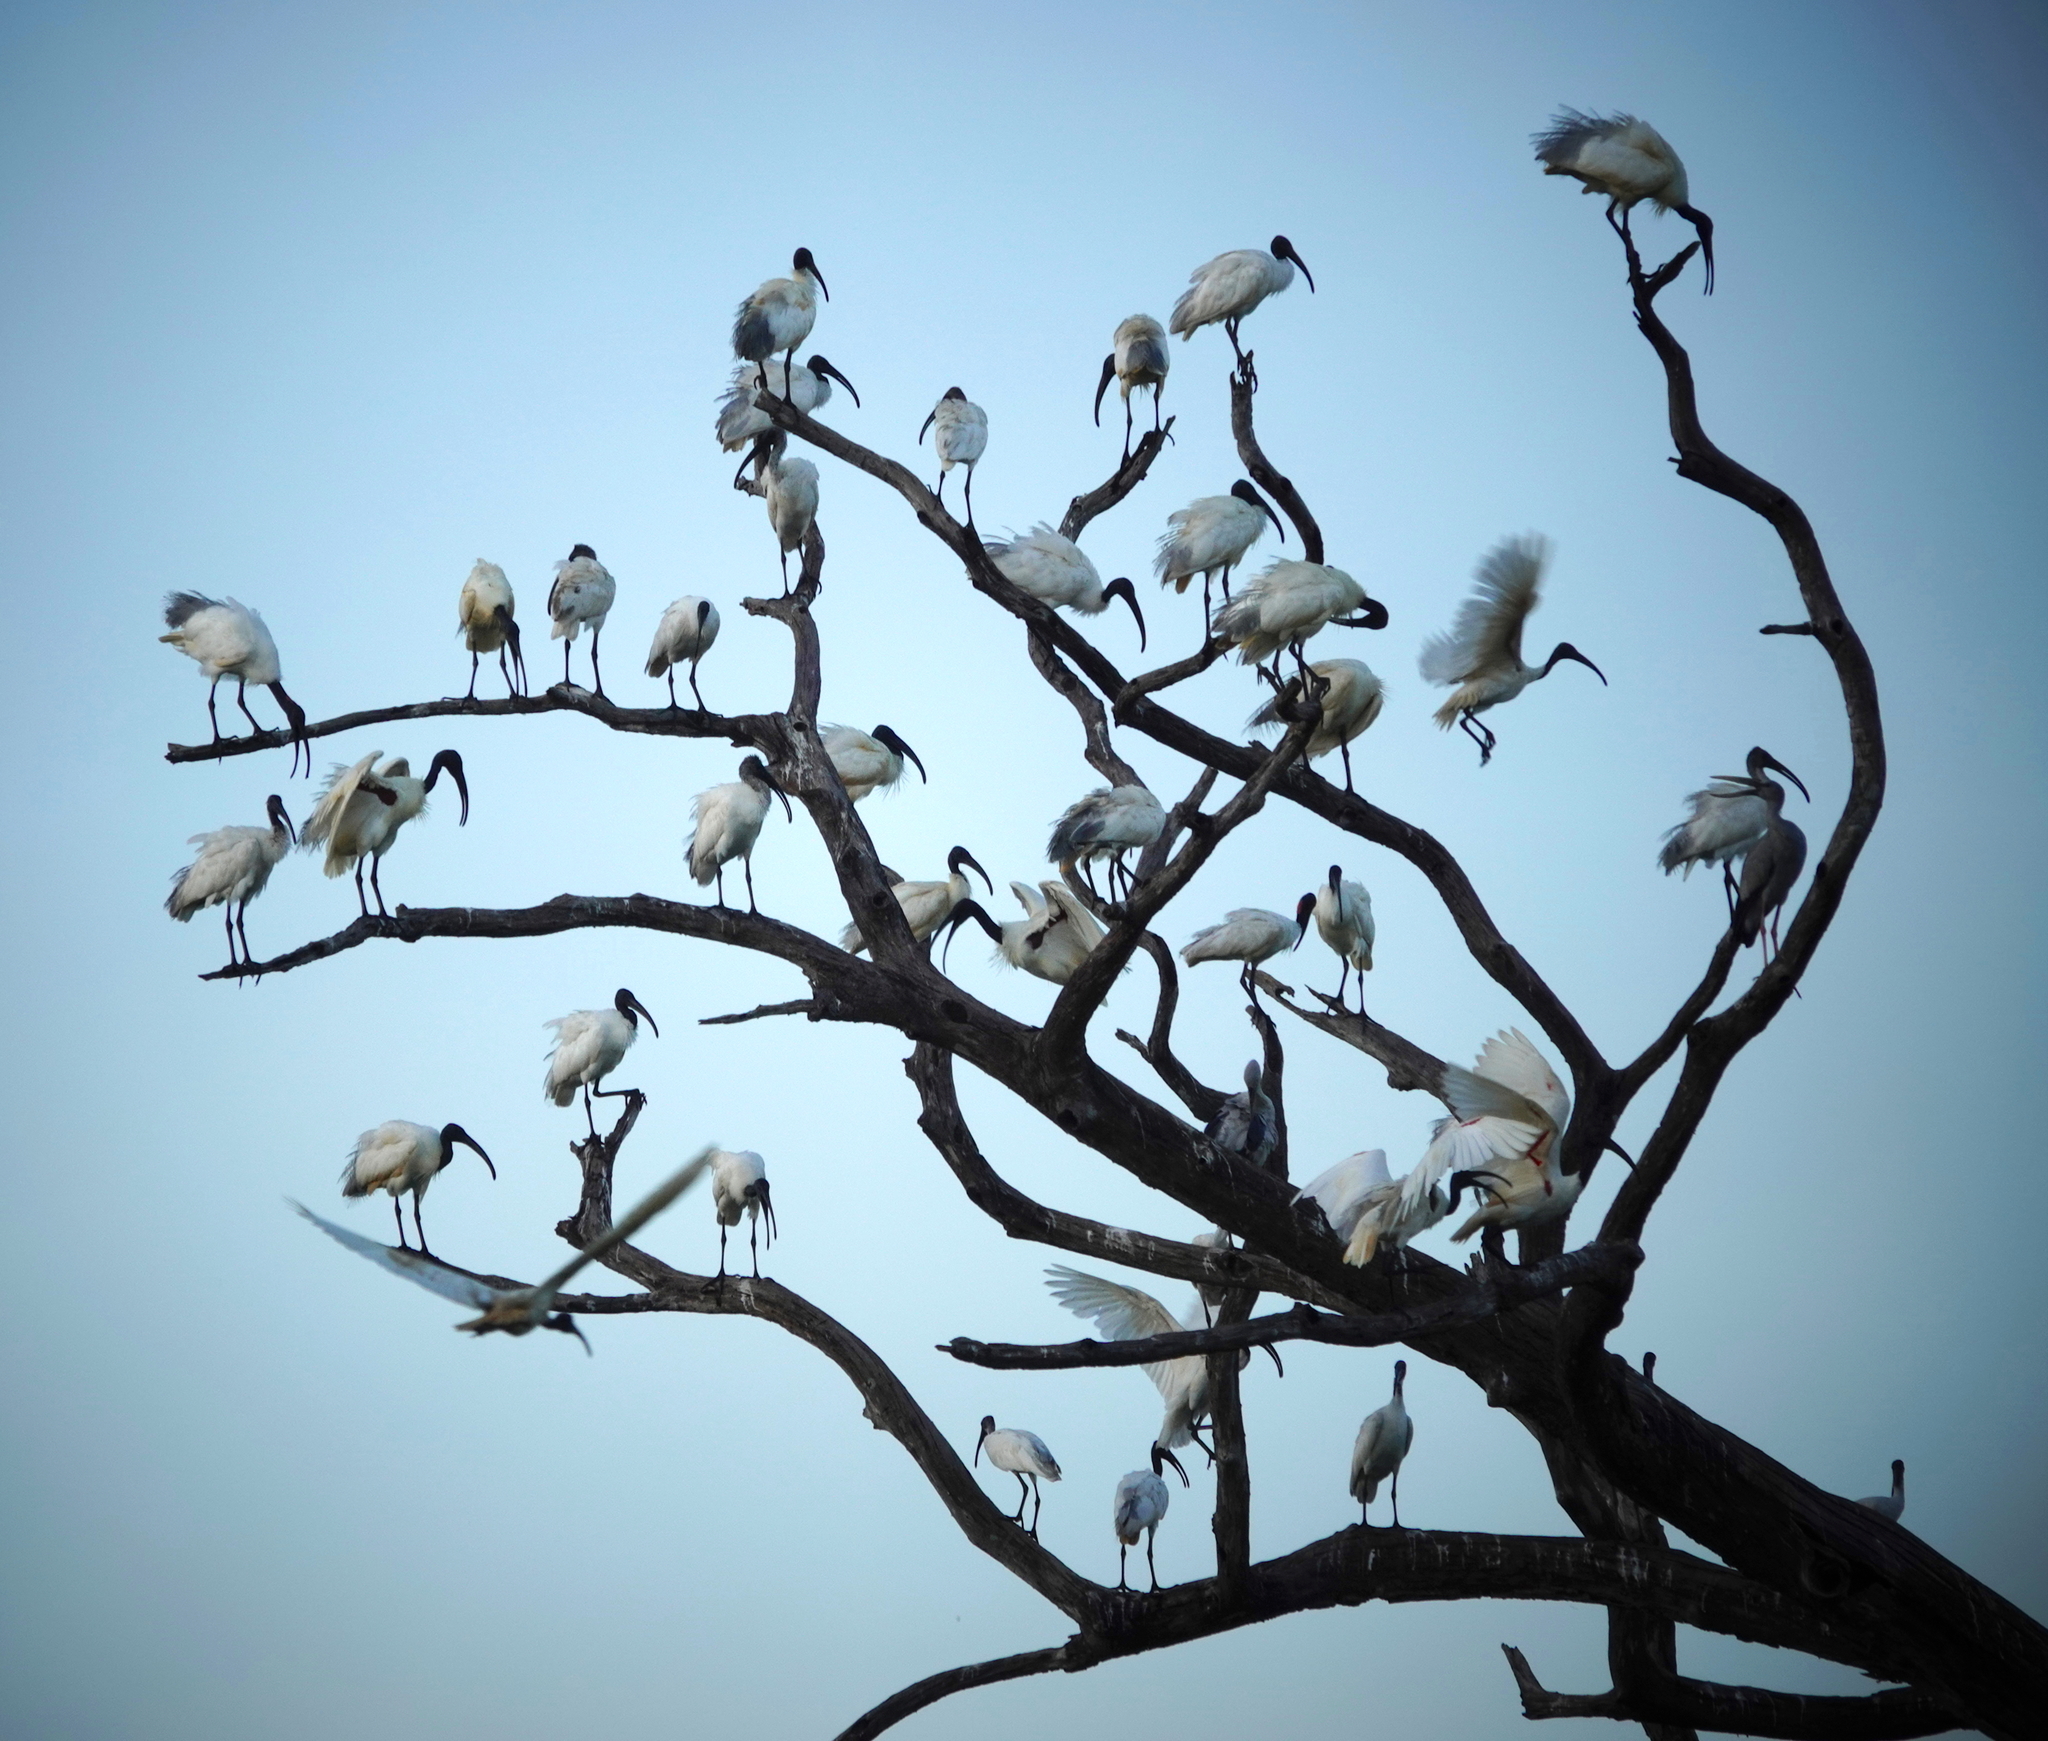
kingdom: Animalia
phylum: Chordata
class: Aves
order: Pelecaniformes
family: Threskiornithidae
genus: Threskiornis
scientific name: Threskiornis melanocephalus
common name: Black-headed ibis
